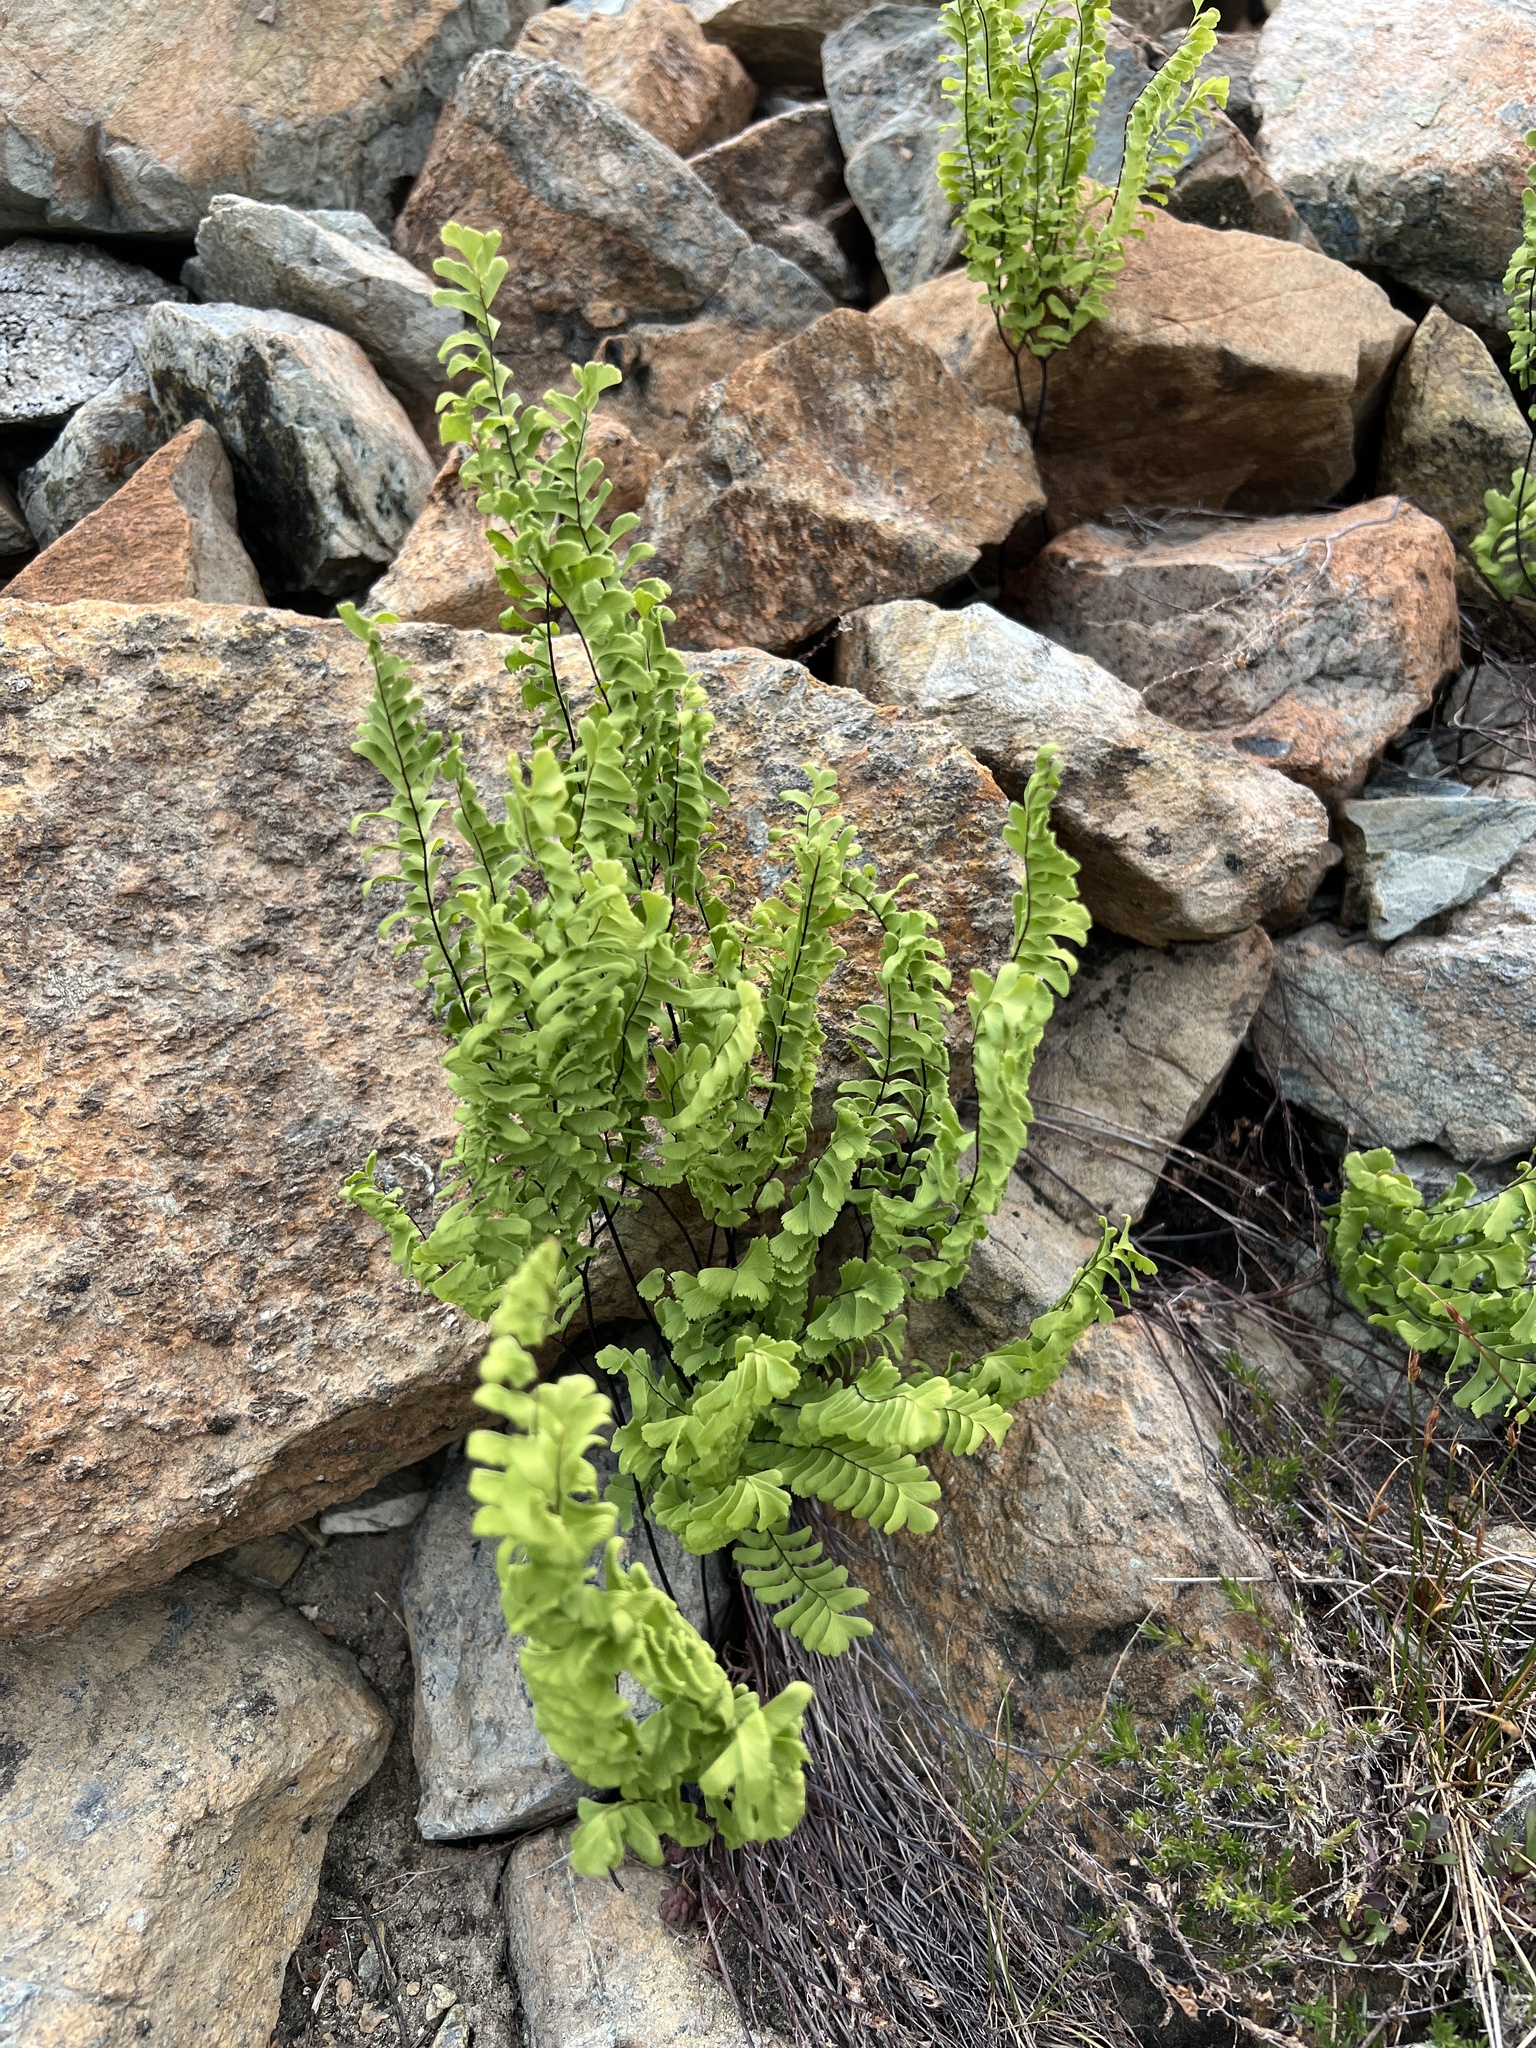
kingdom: Plantae
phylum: Tracheophyta
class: Polypodiopsida
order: Polypodiales
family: Pteridaceae
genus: Adiantum
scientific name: Adiantum aleuticum
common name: Aleutian maidenhair fern
